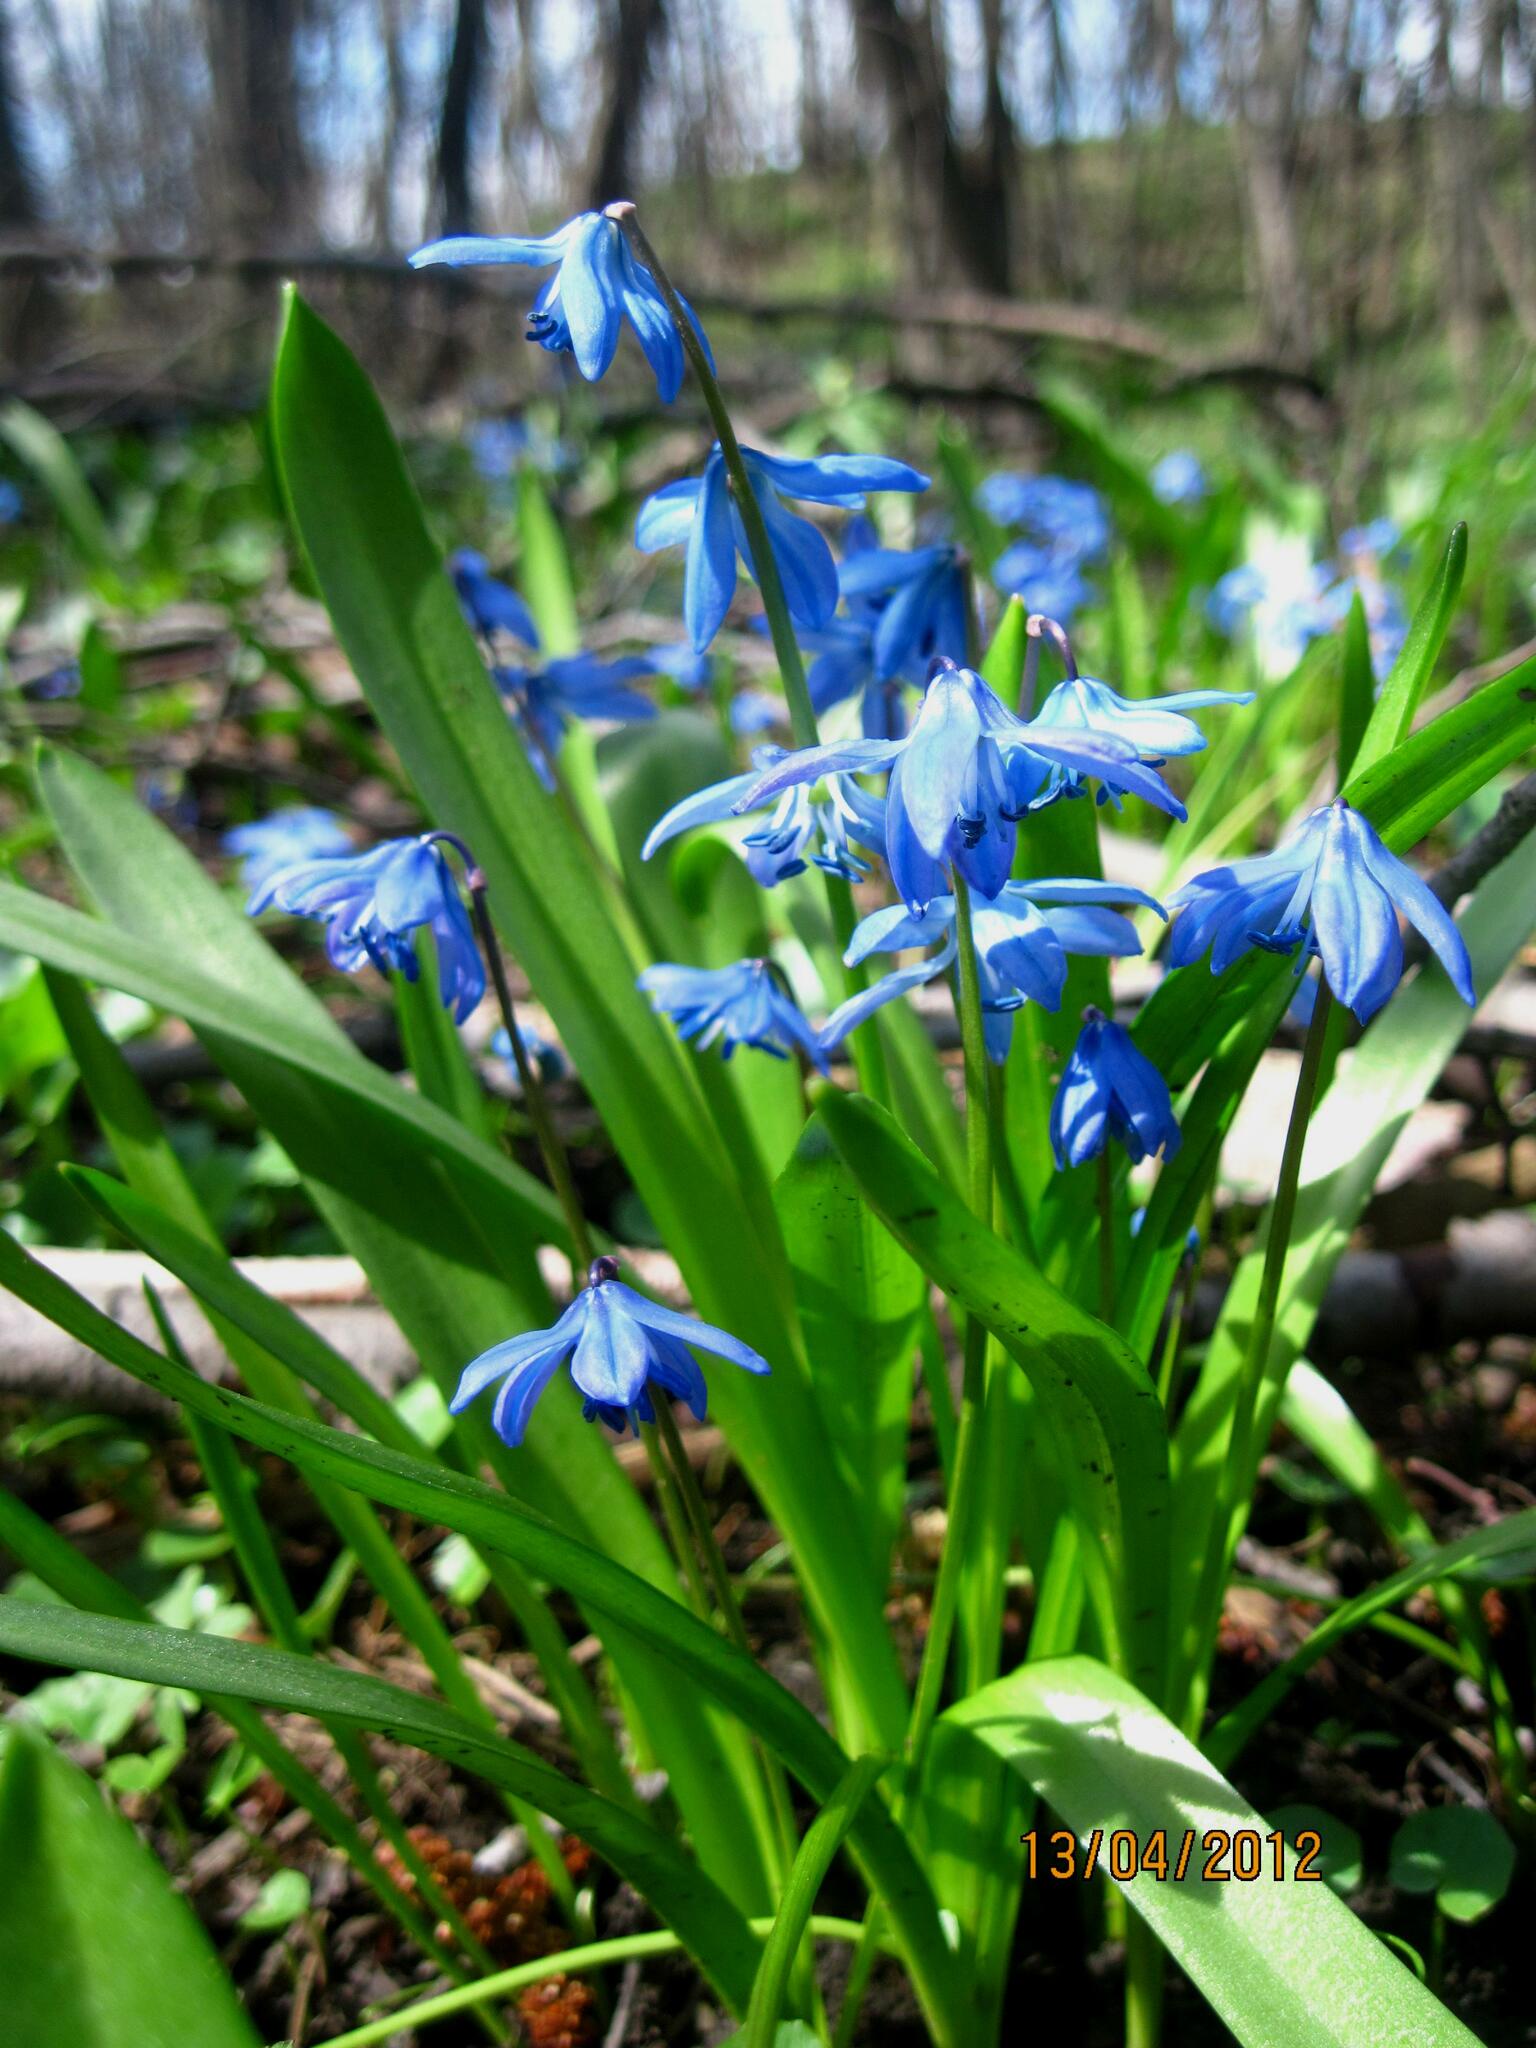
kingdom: Plantae
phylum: Tracheophyta
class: Liliopsida
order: Asparagales
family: Asparagaceae
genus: Scilla
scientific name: Scilla siberica
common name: Siberian squill
